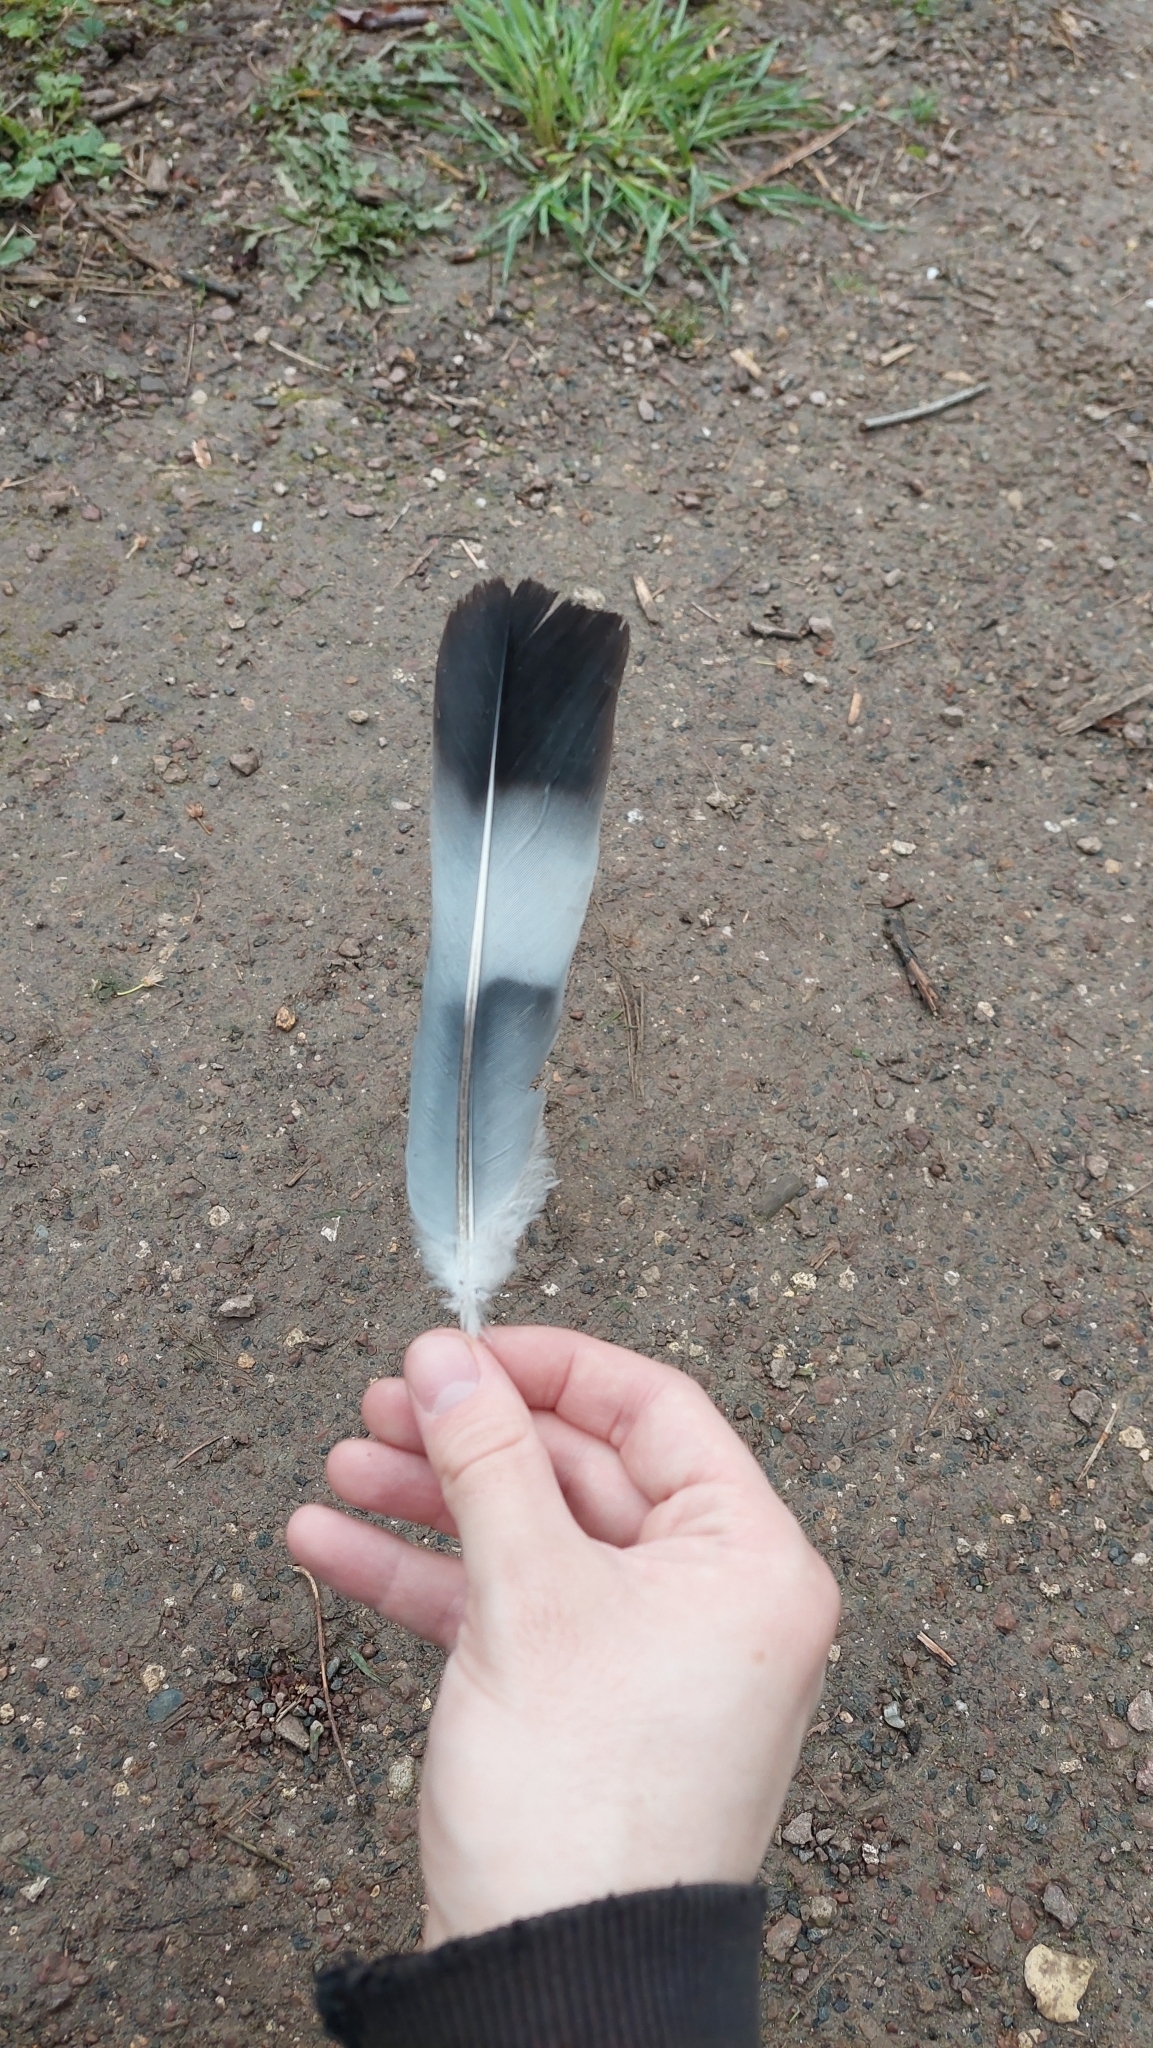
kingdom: Animalia
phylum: Chordata
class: Aves
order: Columbiformes
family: Columbidae
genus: Columba
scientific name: Columba palumbus
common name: Common wood pigeon
